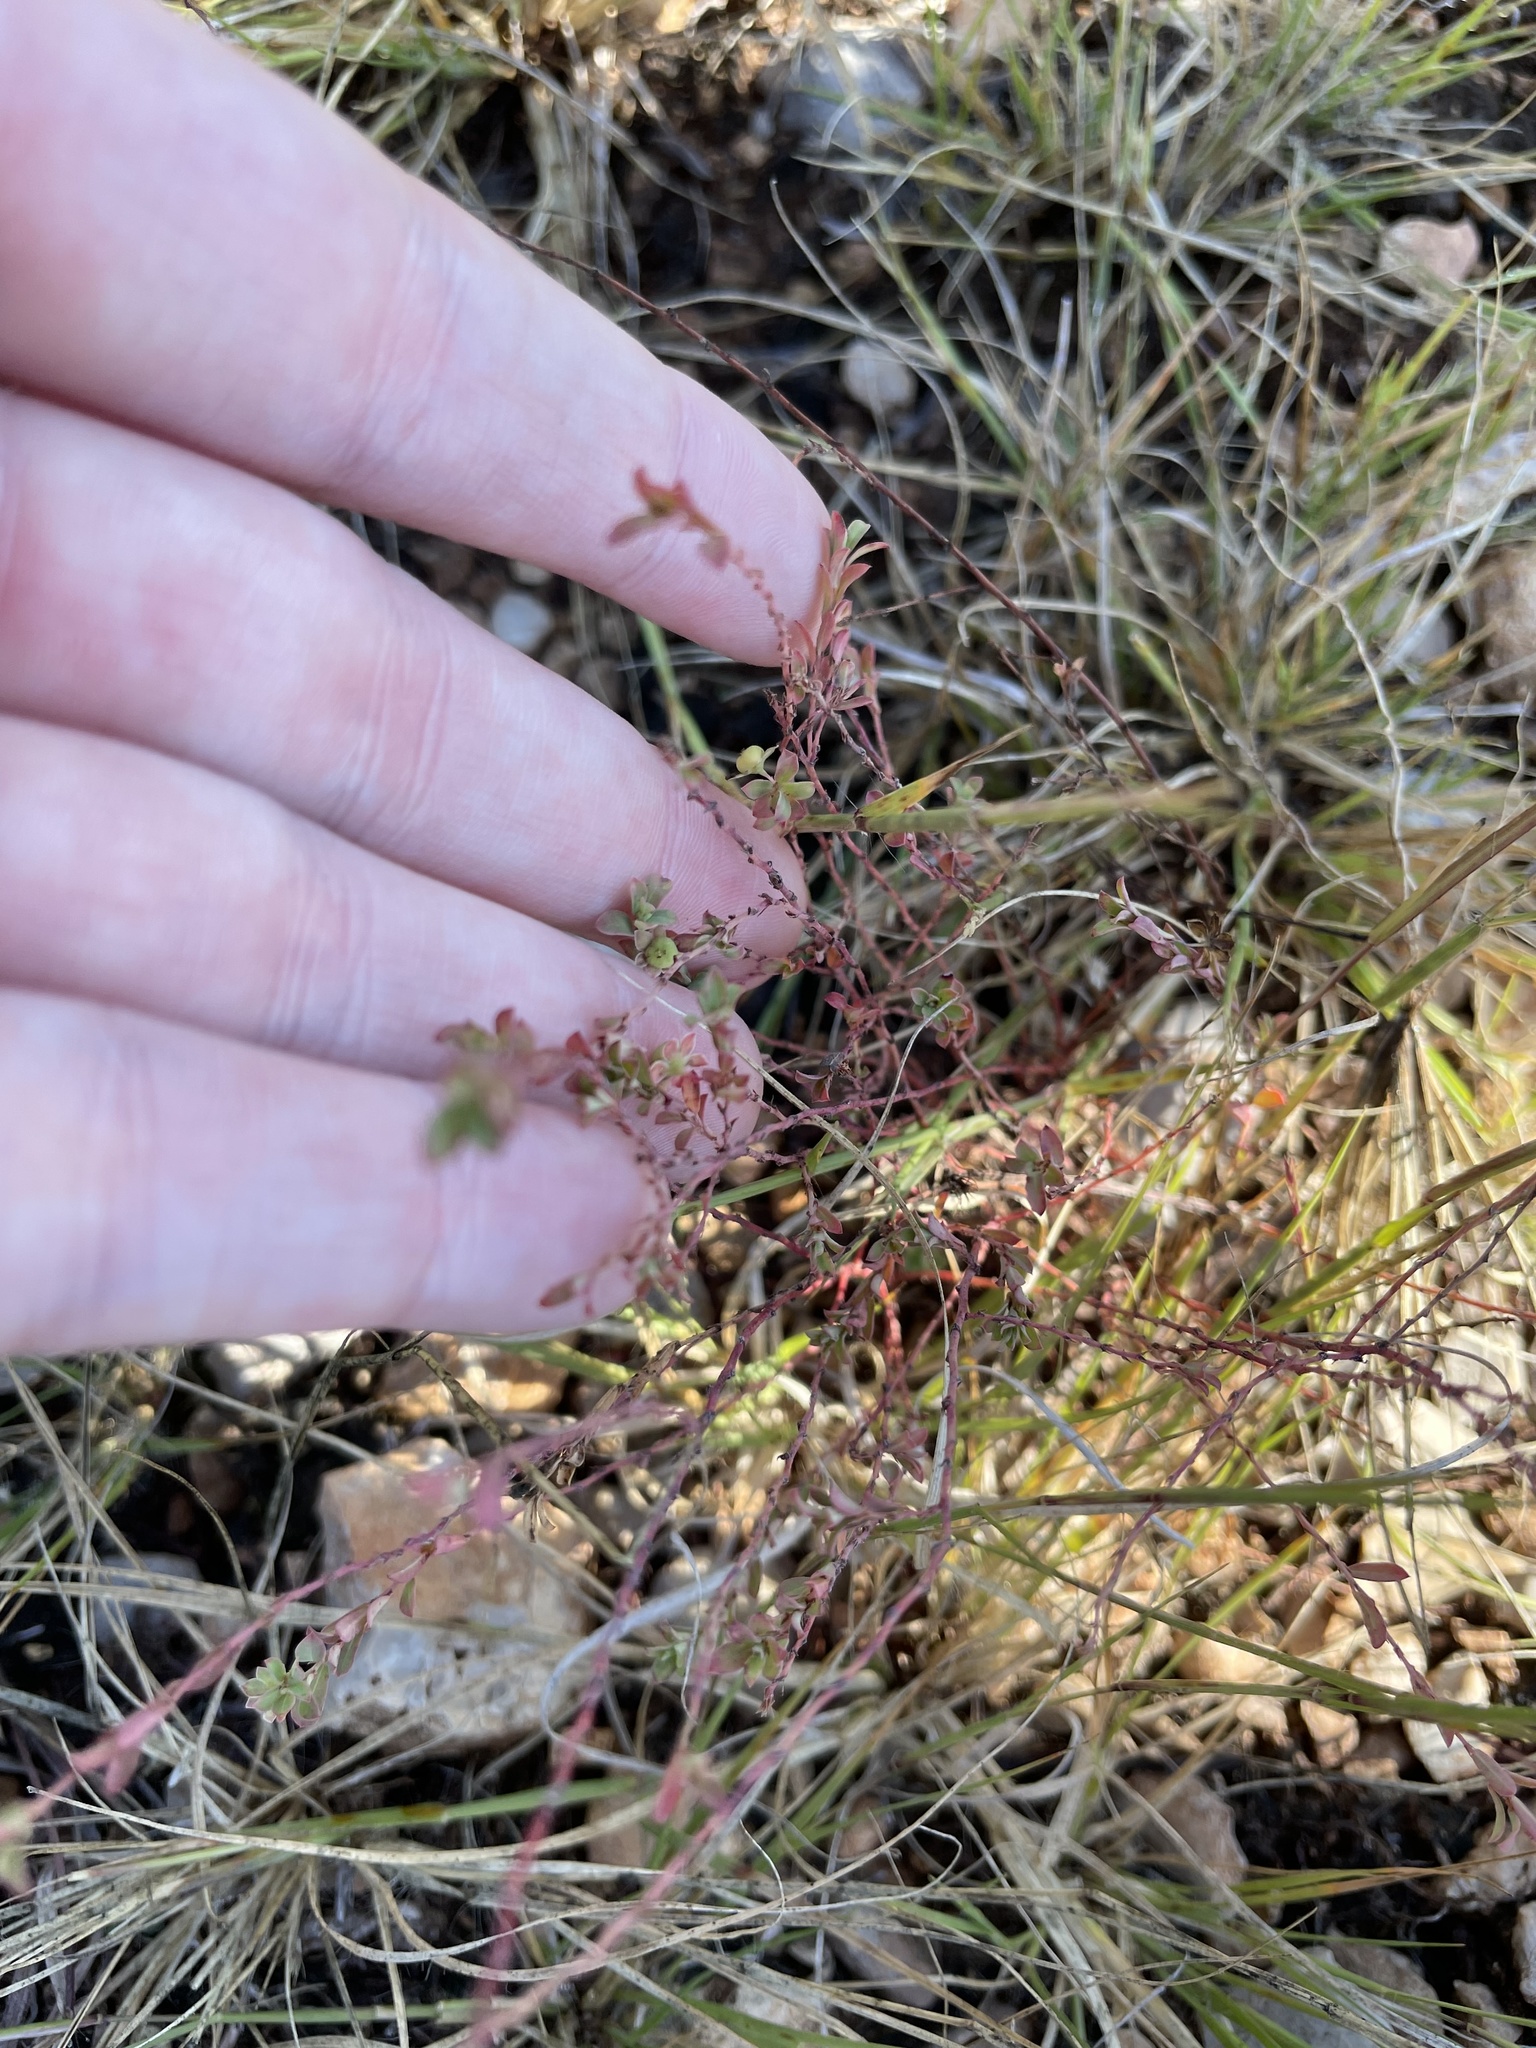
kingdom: Plantae
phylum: Tracheophyta
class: Magnoliopsida
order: Malpighiales
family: Phyllanthaceae
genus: Phyllanthus
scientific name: Phyllanthus polygonoides
